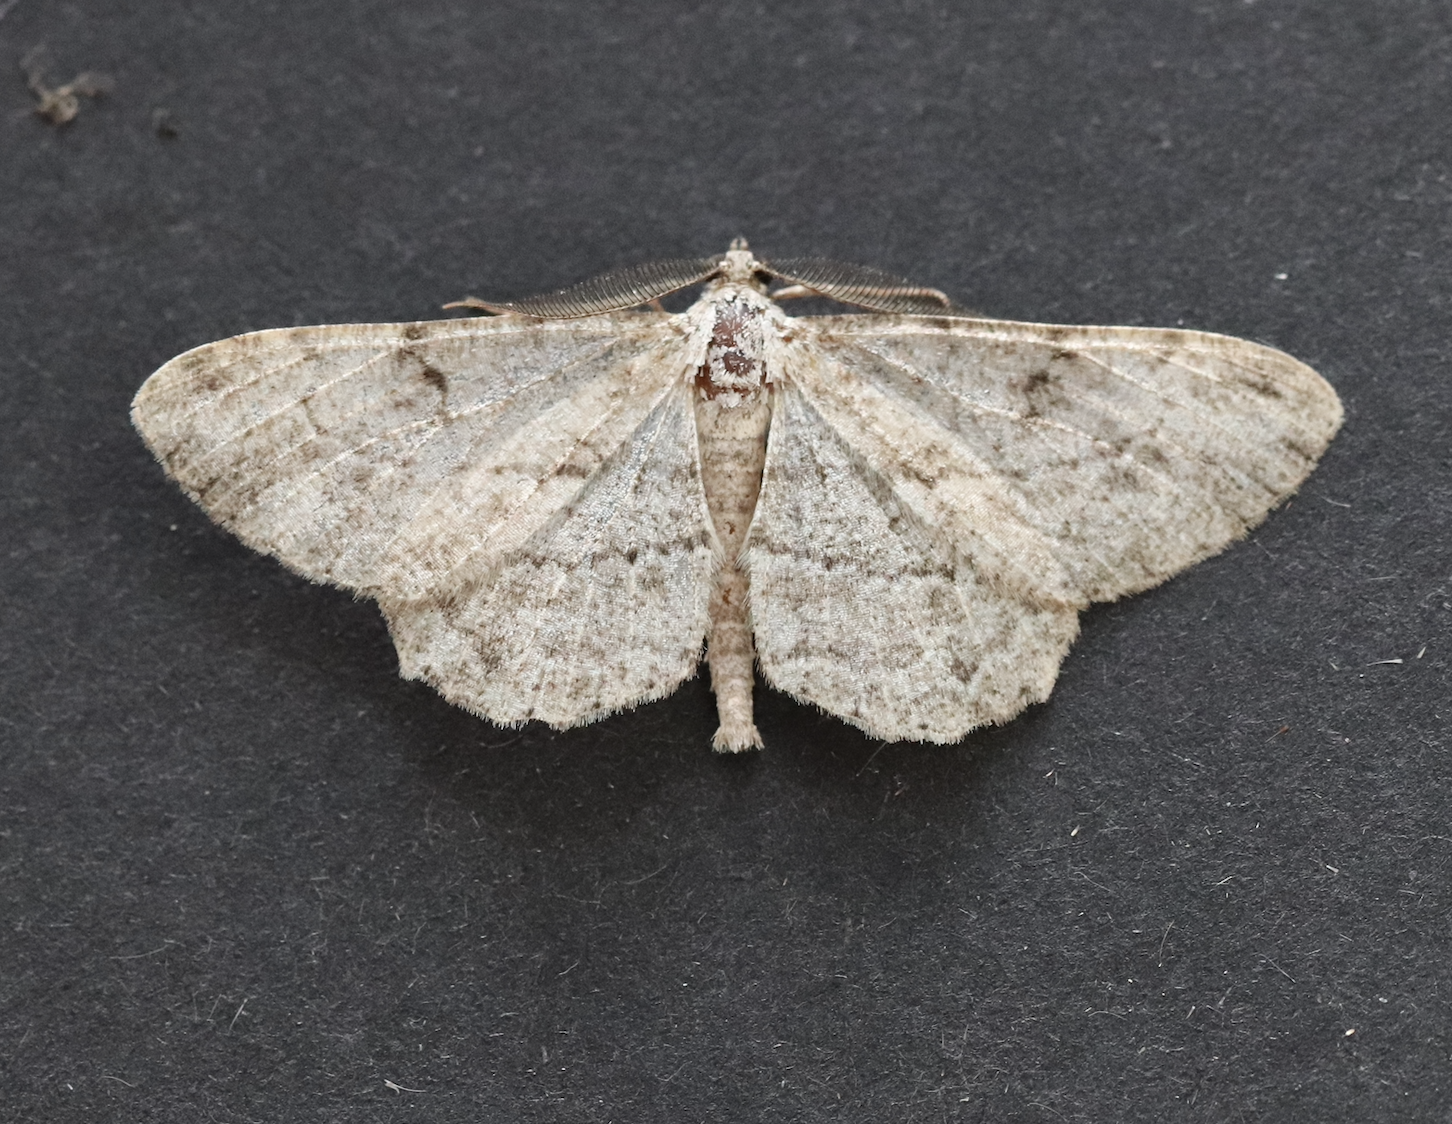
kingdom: Animalia
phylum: Arthropoda
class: Insecta
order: Lepidoptera
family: Geometridae
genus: Peribatodes
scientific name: Peribatodes rhomboidaria
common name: Willow beauty
